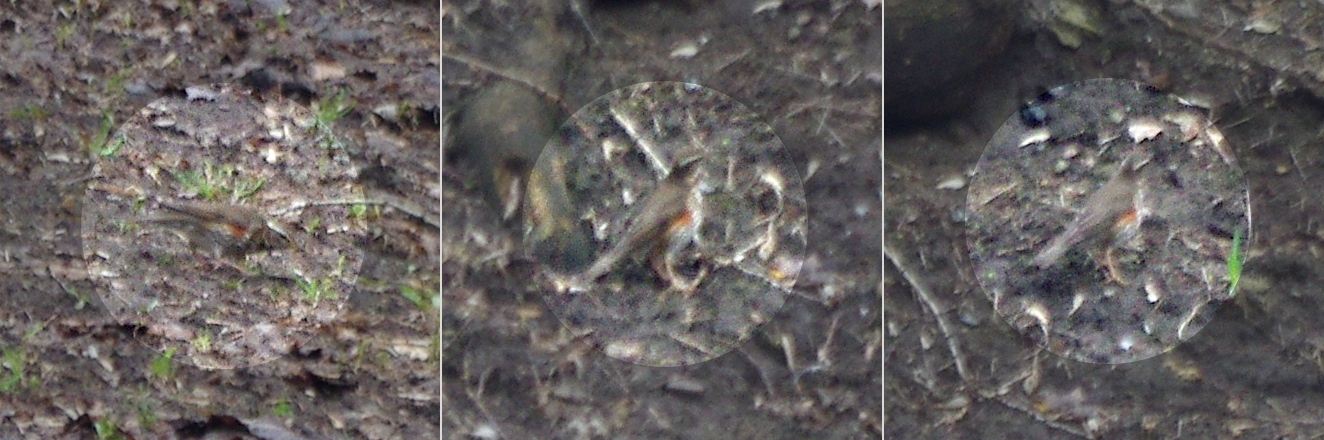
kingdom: Animalia
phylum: Chordata
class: Aves
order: Passeriformes
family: Turdidae
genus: Turdus
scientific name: Turdus iliacus
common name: Redwing
